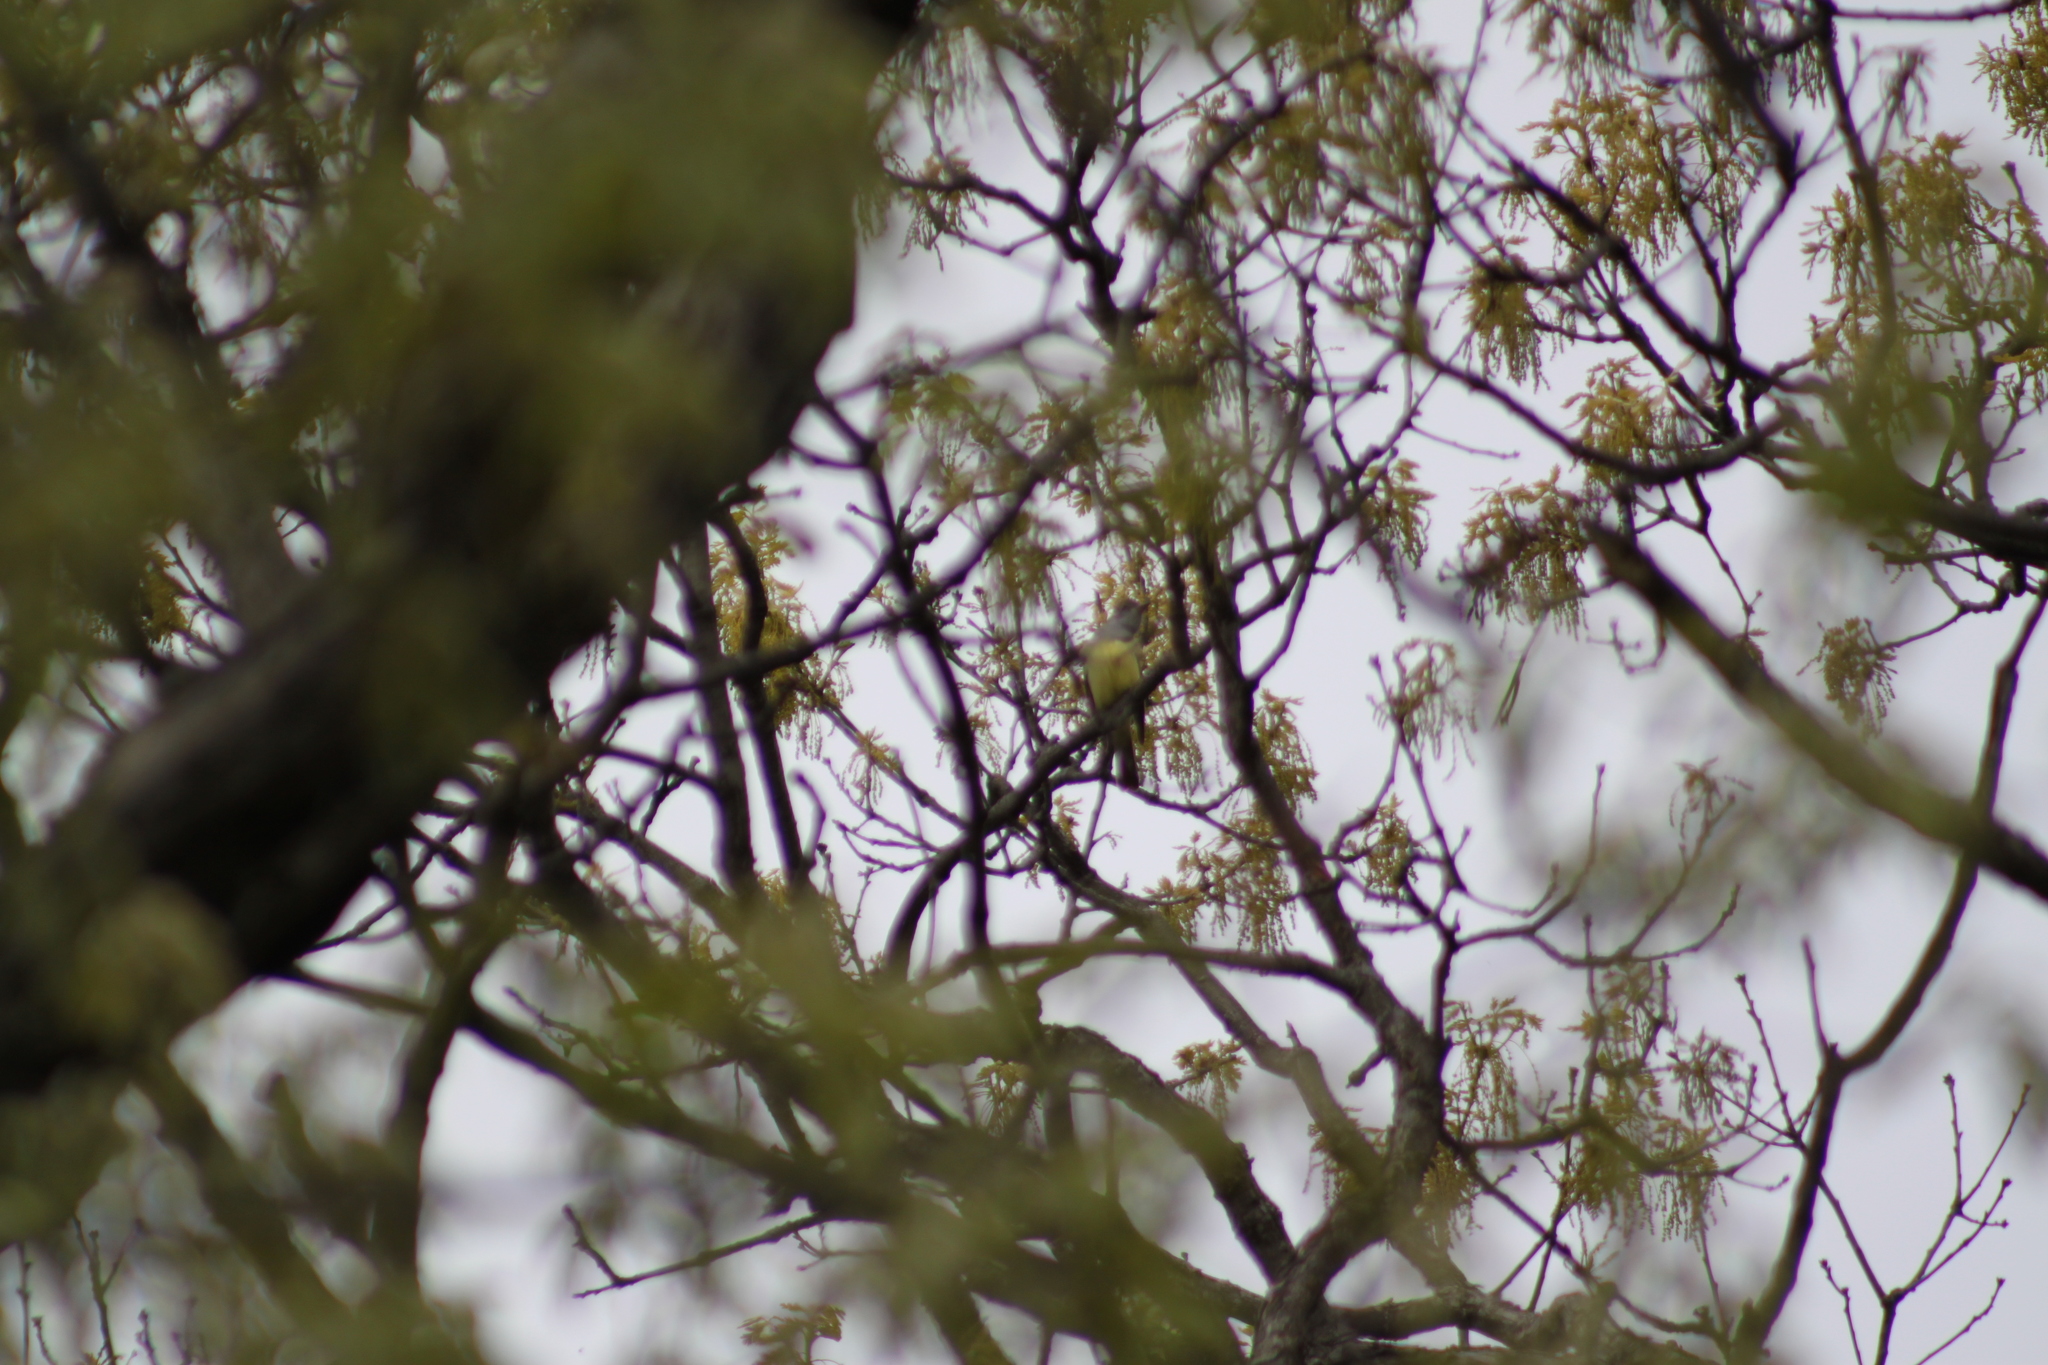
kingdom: Animalia
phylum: Chordata
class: Aves
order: Passeriformes
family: Tyrannidae
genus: Myiarchus
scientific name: Myiarchus crinitus
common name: Great crested flycatcher
